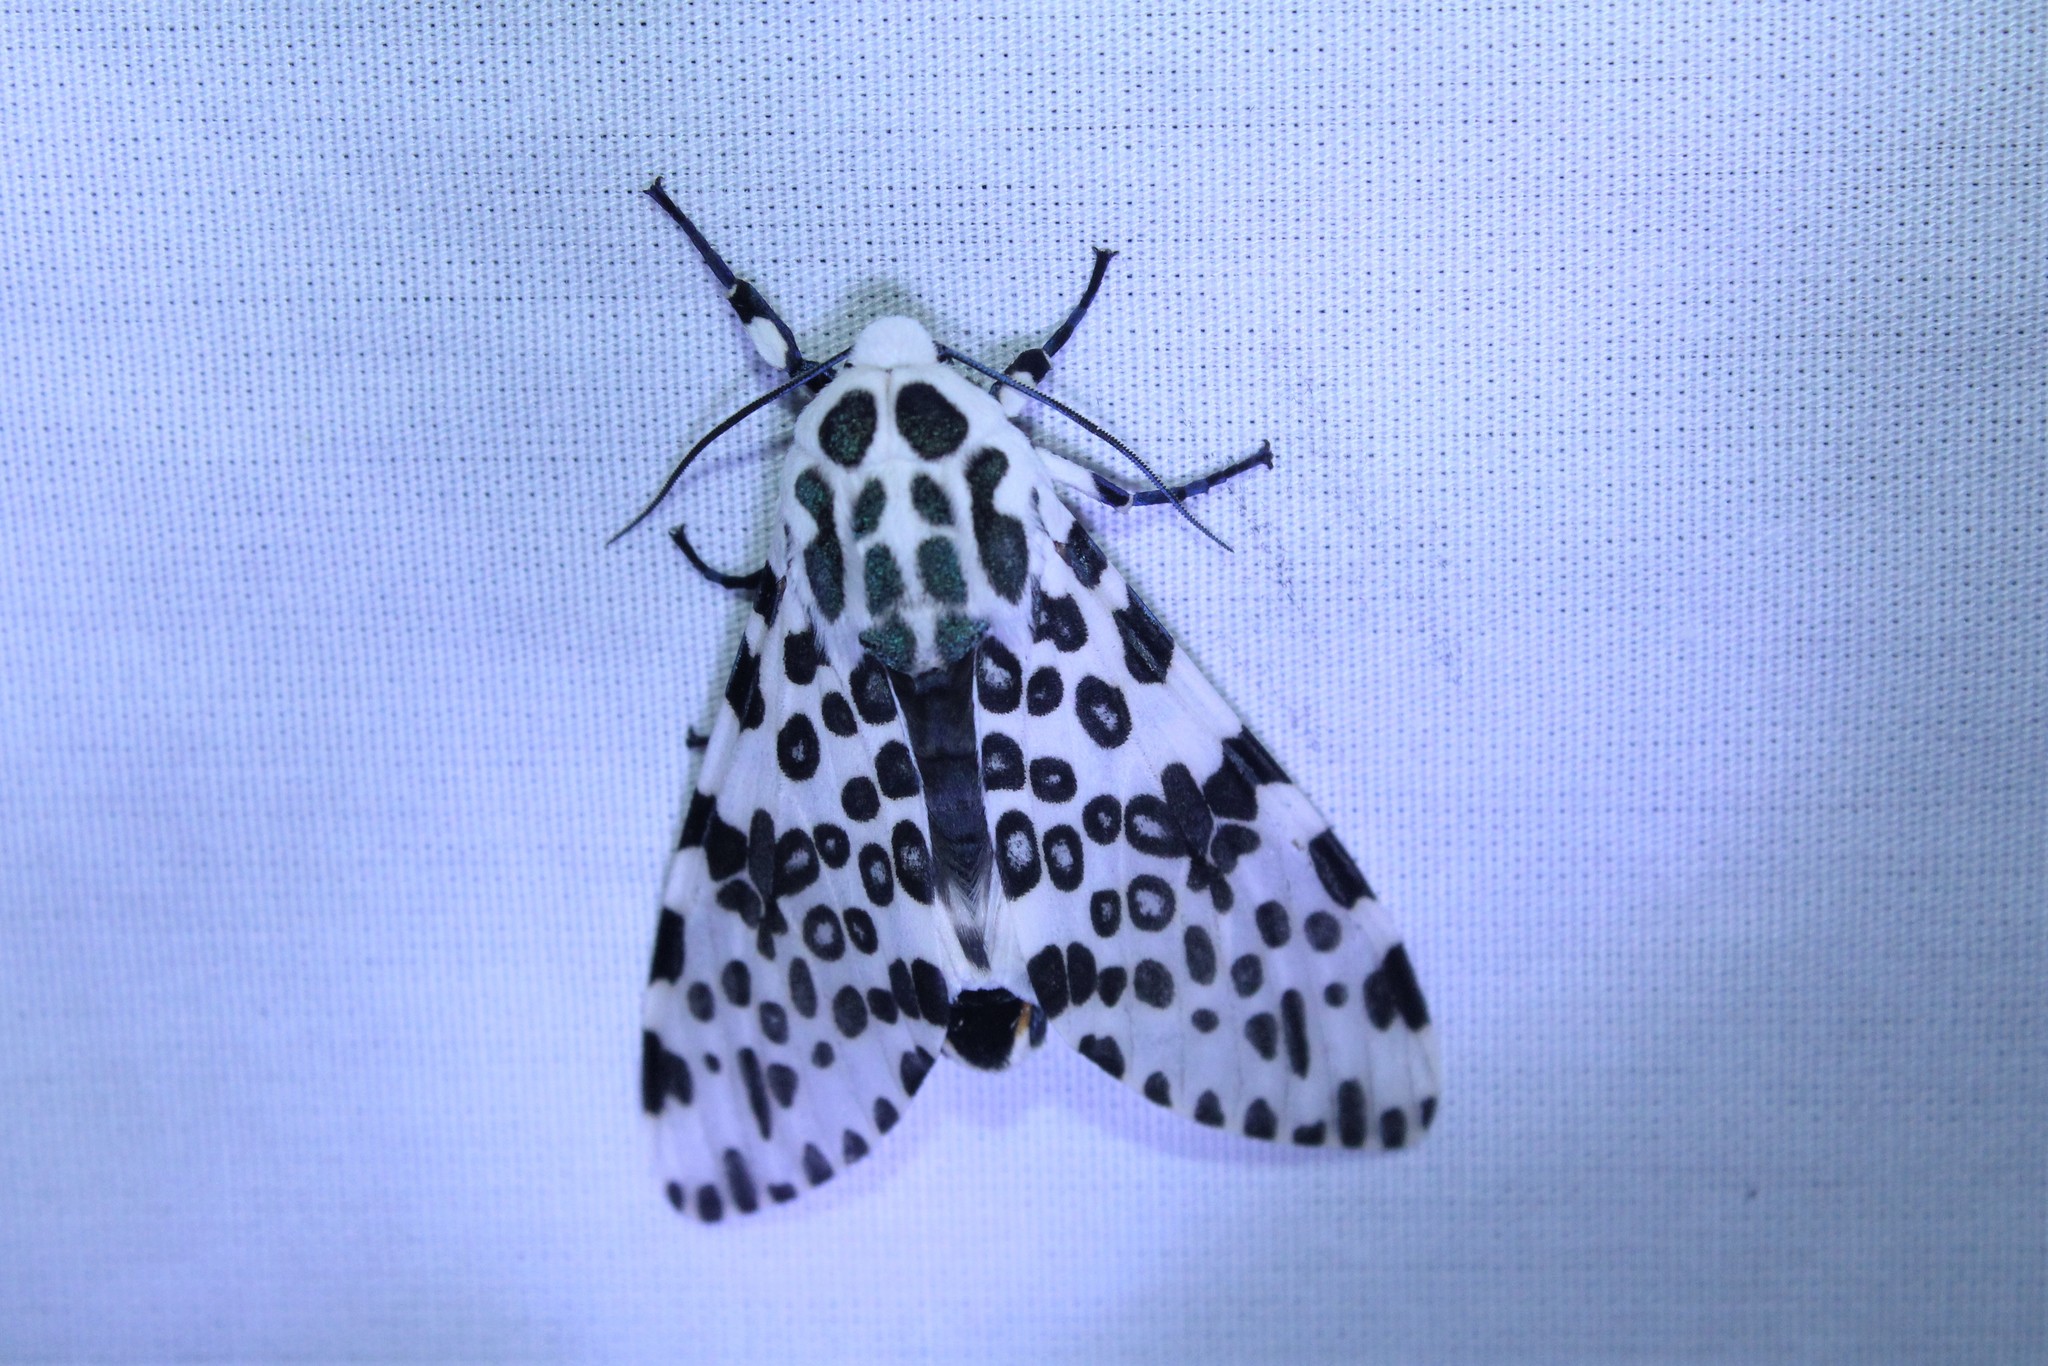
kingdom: Animalia
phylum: Arthropoda
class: Insecta
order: Lepidoptera
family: Erebidae
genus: Hypercompe
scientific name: Hypercompe scribonia
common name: Giant leopard moth
